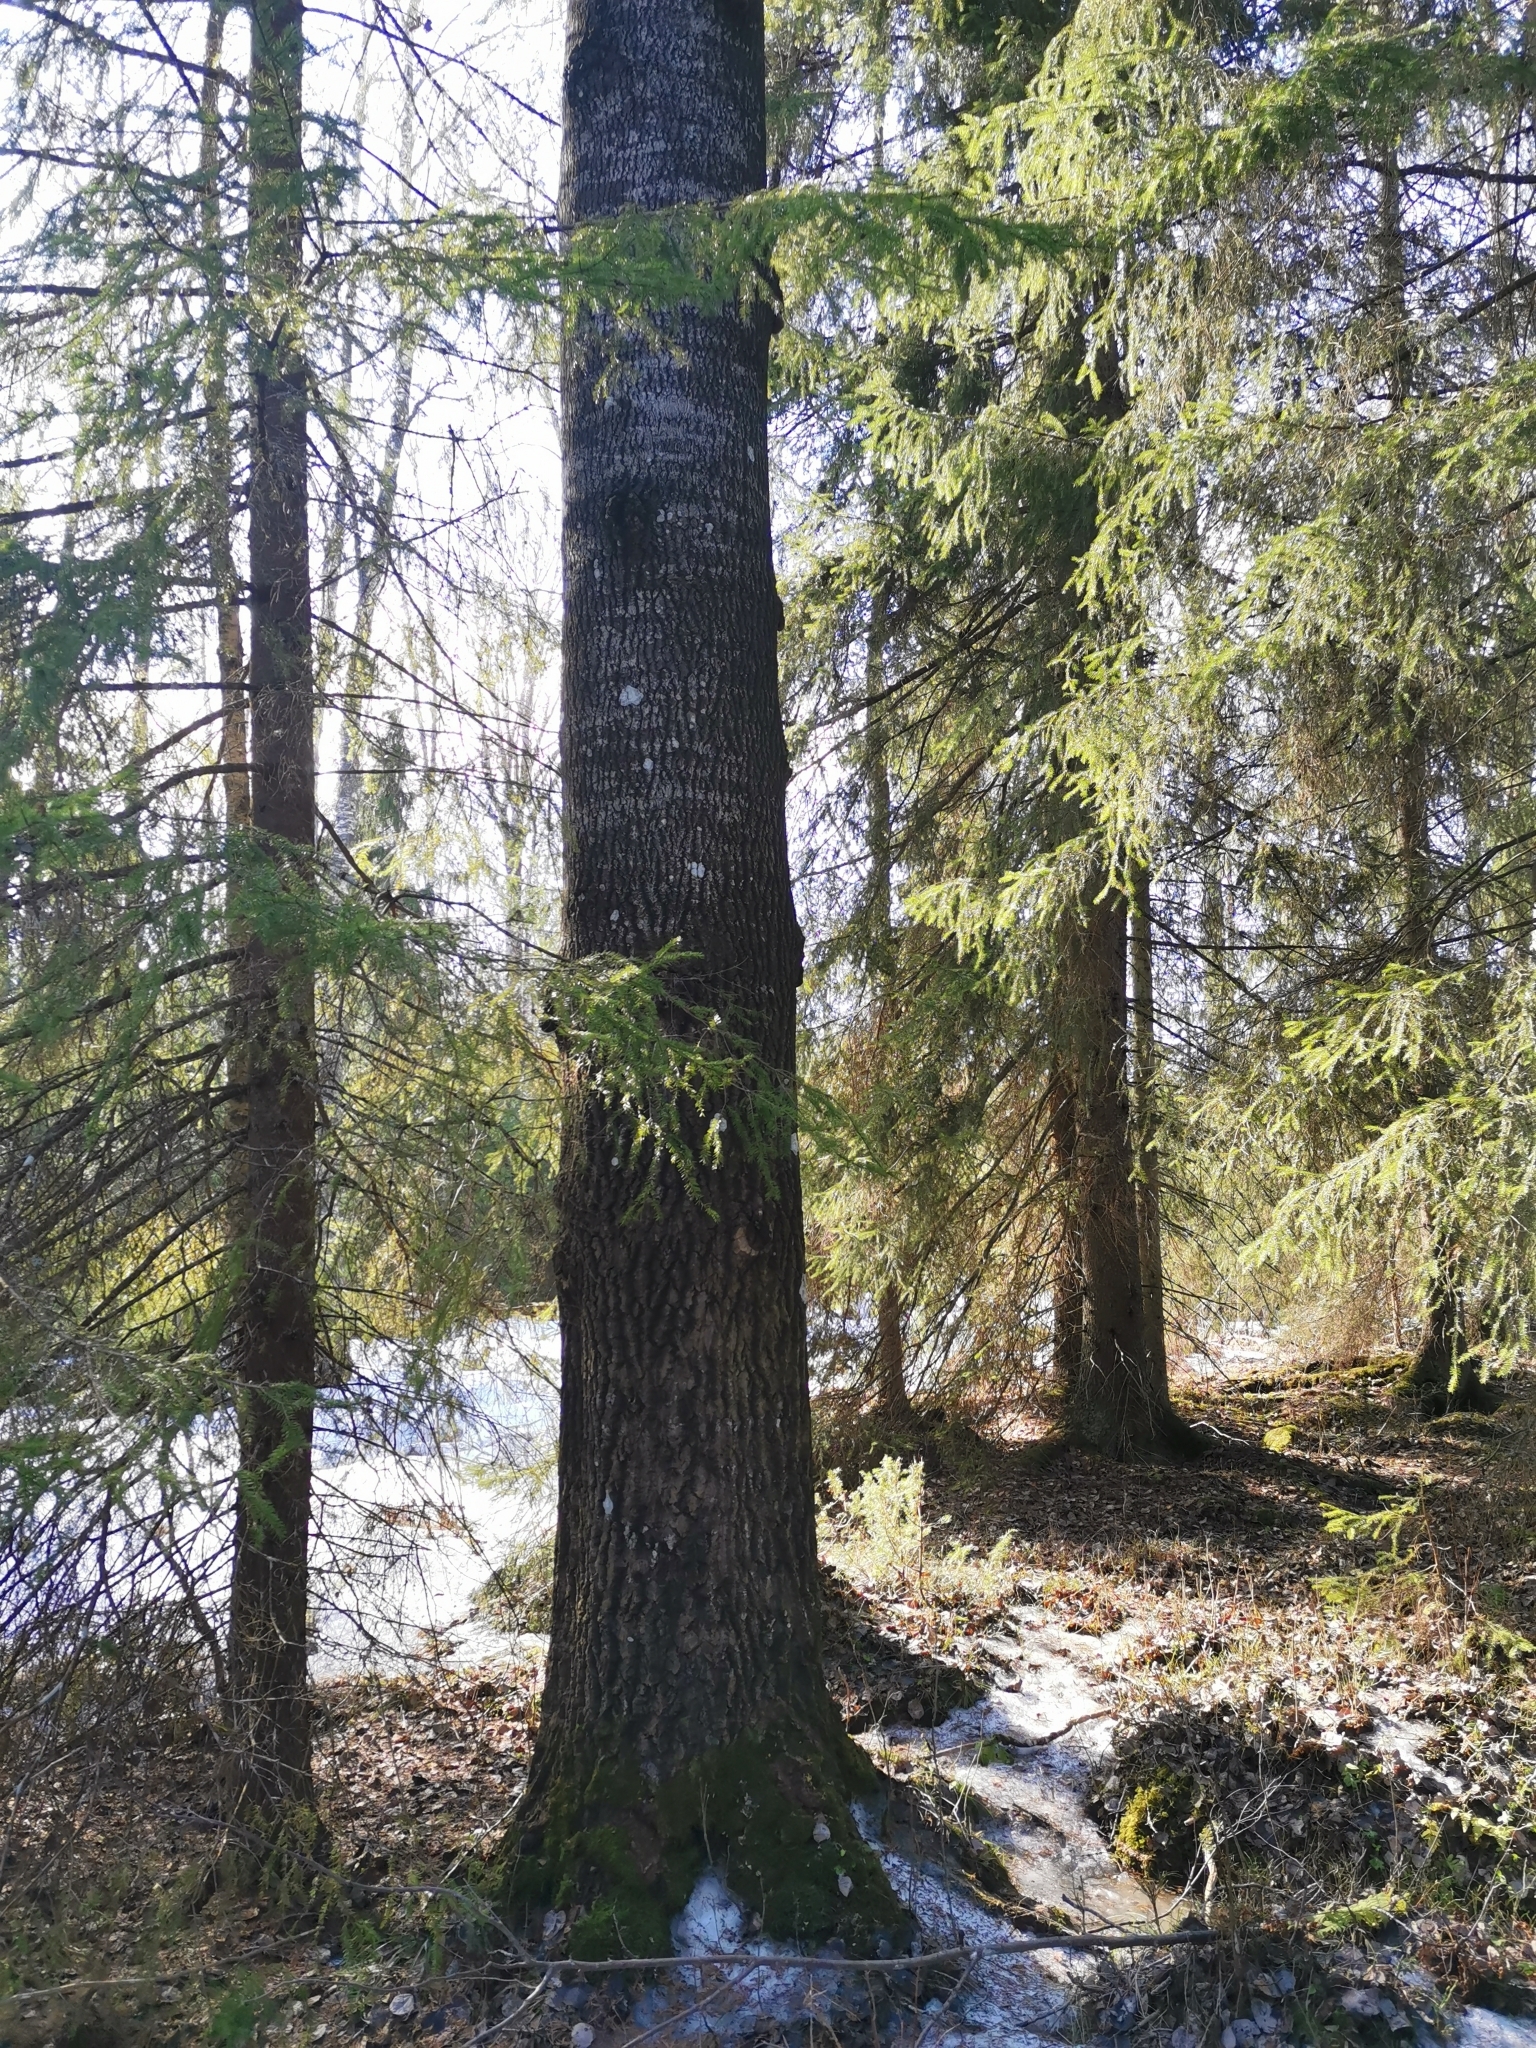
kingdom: Animalia
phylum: Chordata
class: Mammalia
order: Rodentia
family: Sciuridae
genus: Pteromys
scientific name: Pteromys volans
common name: Siberian flying squirrel
